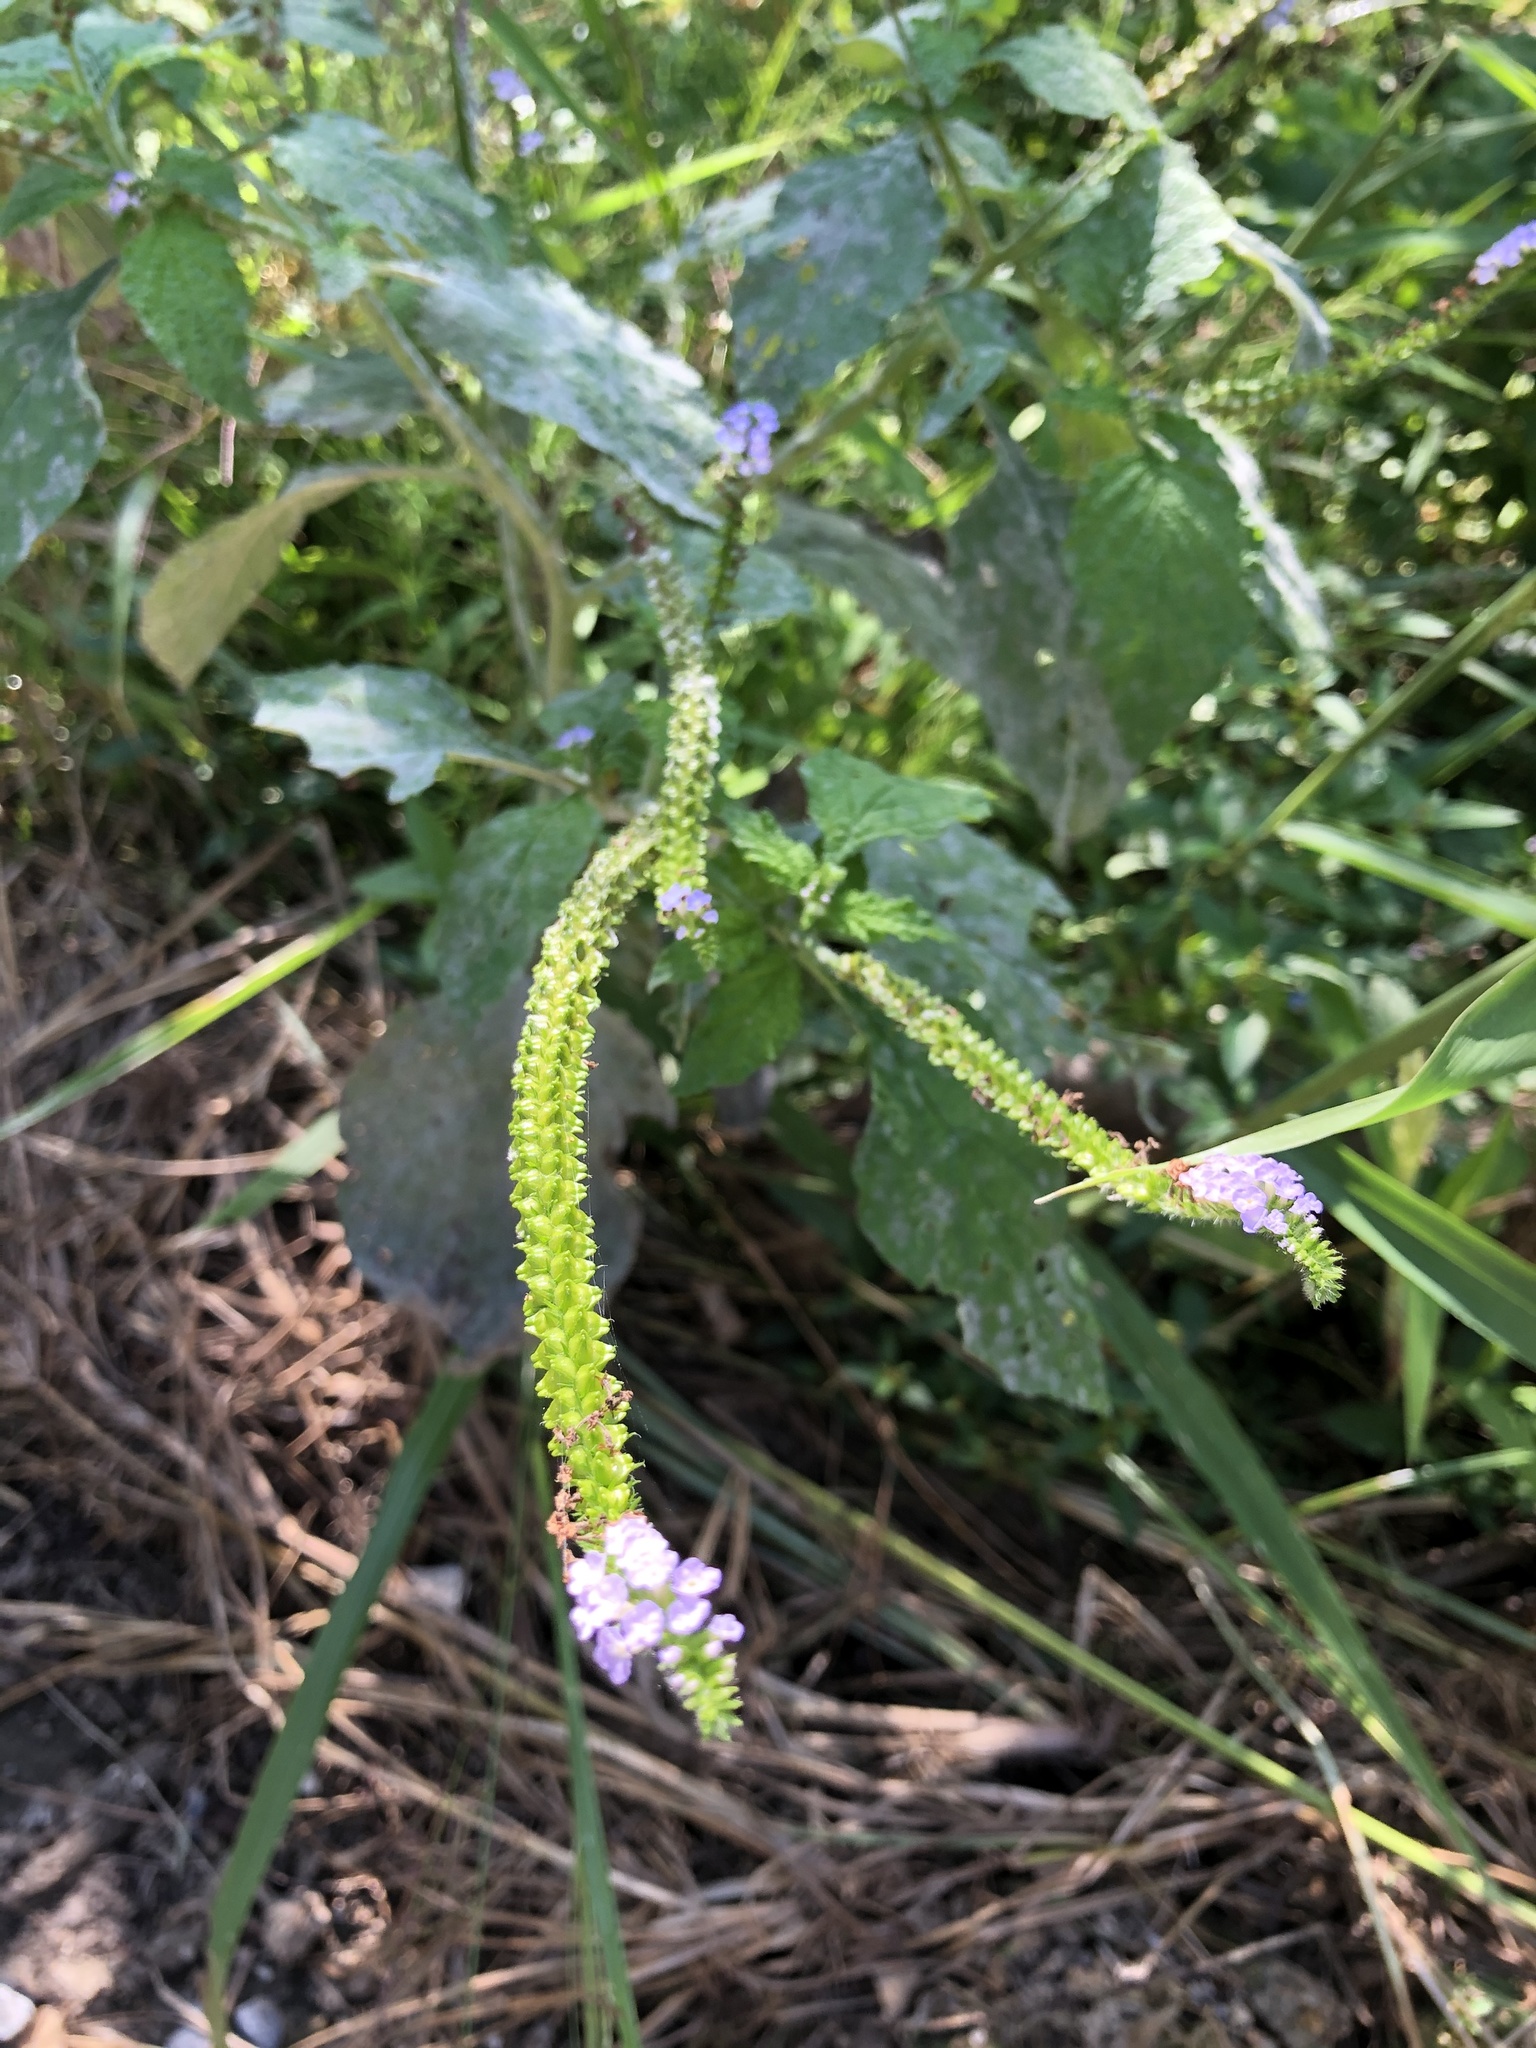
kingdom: Plantae
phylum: Tracheophyta
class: Magnoliopsida
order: Boraginales
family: Heliotropiaceae
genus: Heliotropium
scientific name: Heliotropium indicum
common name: Indian heliotrope
